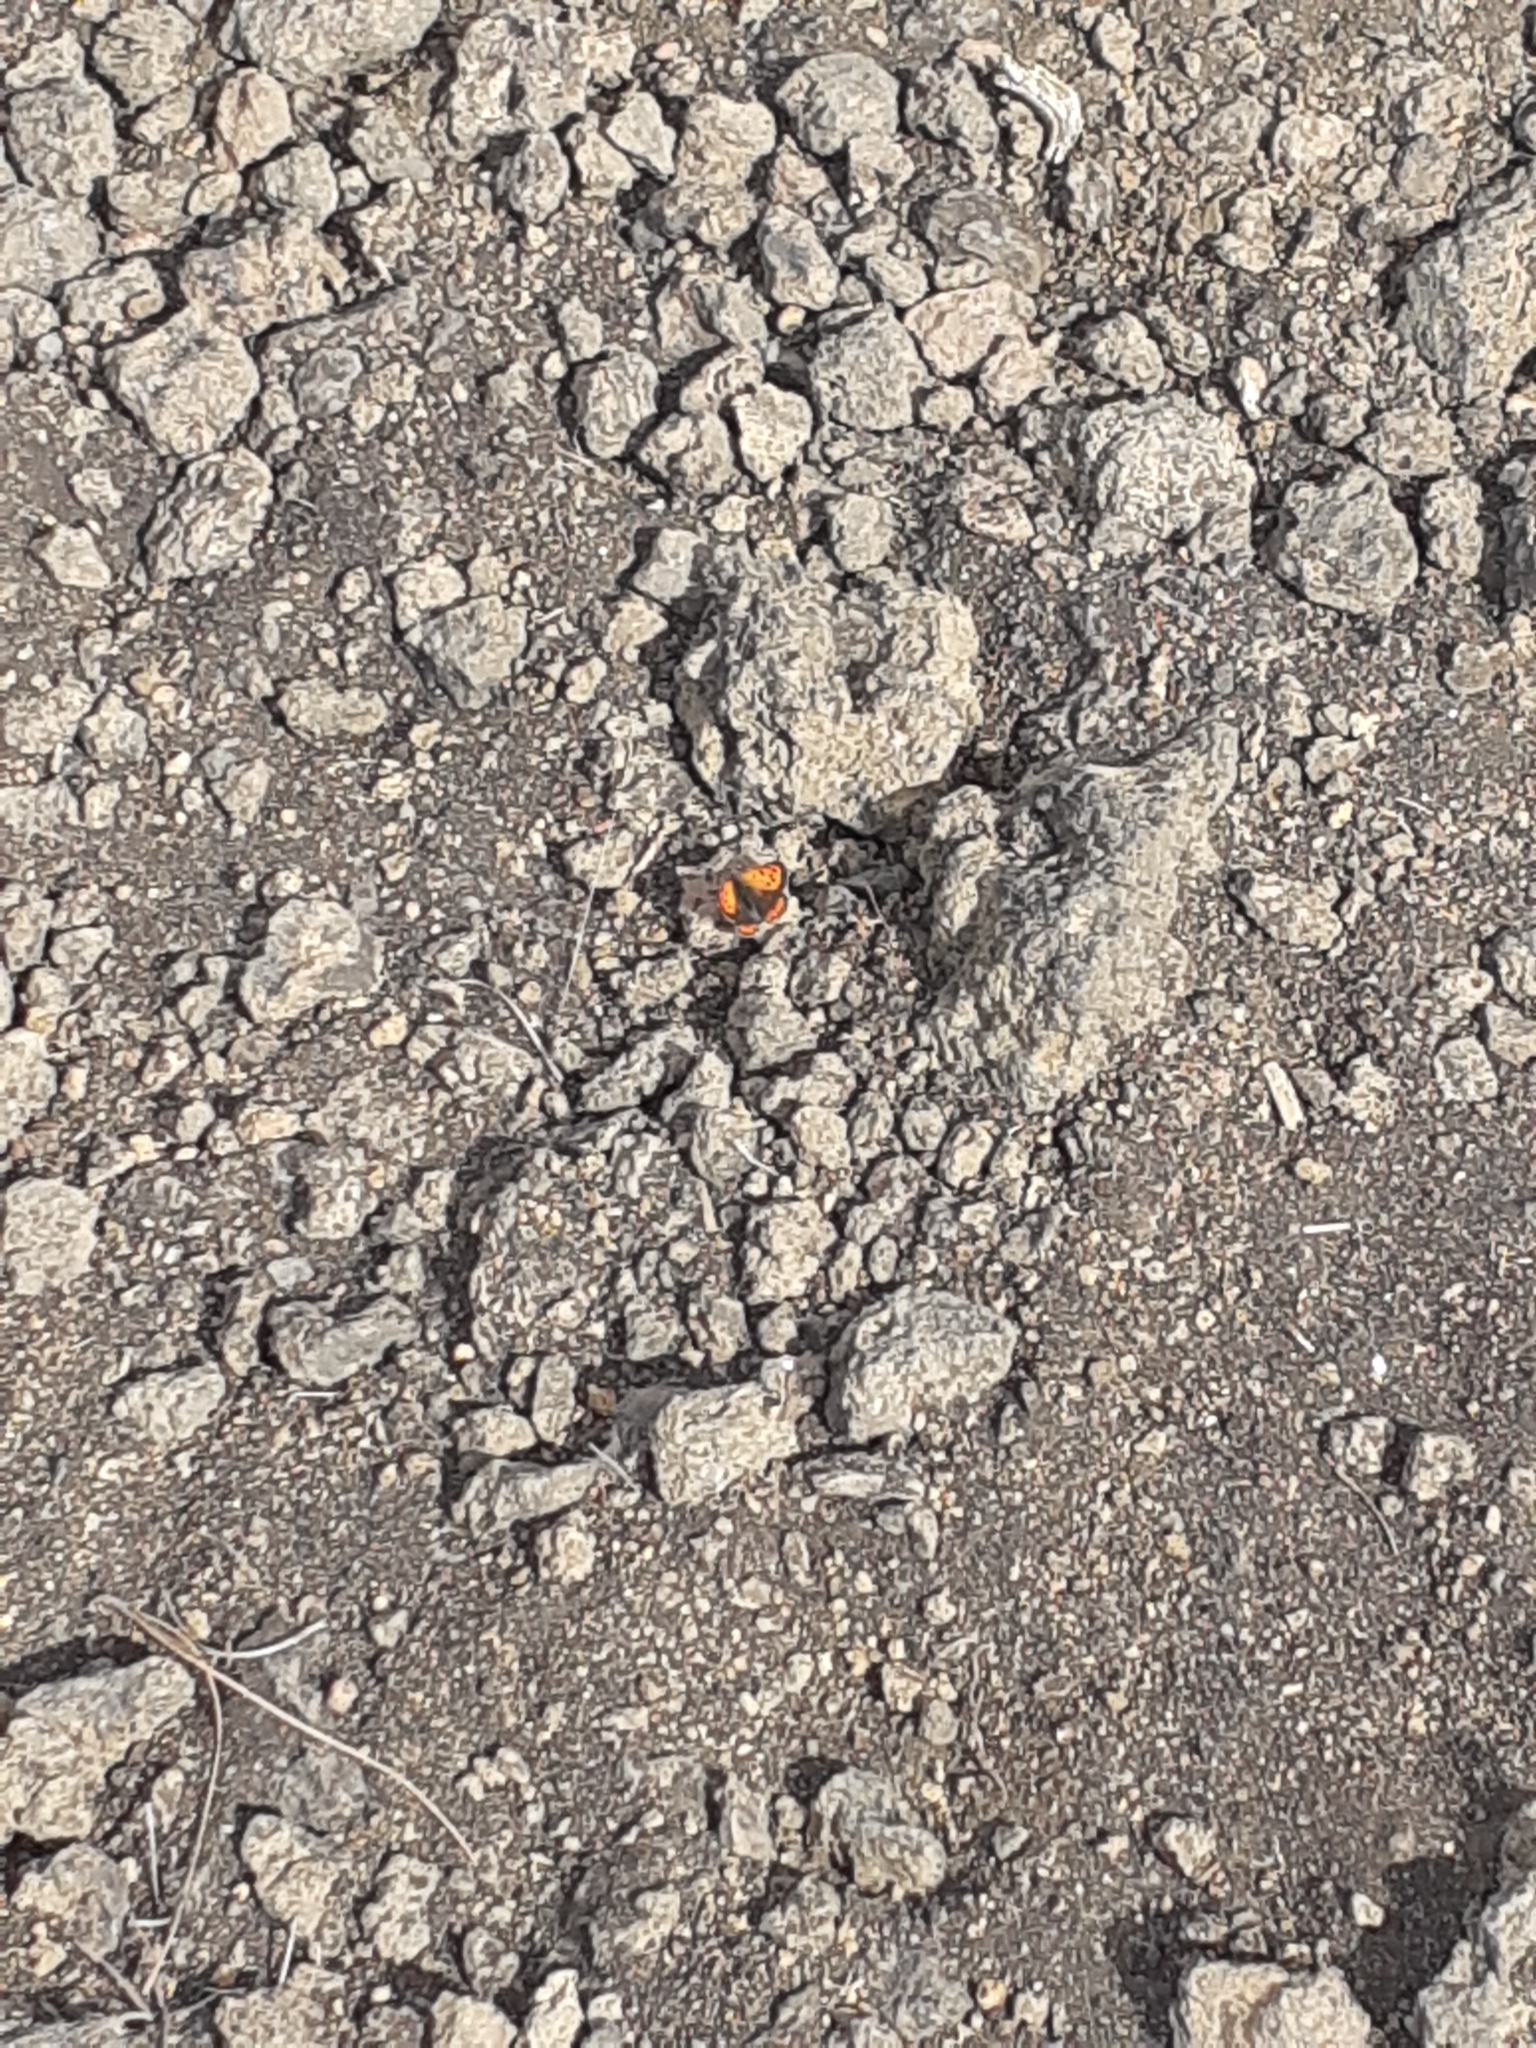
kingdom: Animalia
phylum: Arthropoda
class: Insecta
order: Lepidoptera
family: Lycaenidae
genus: Lycaena
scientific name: Lycaena phlaeas
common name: Small copper
